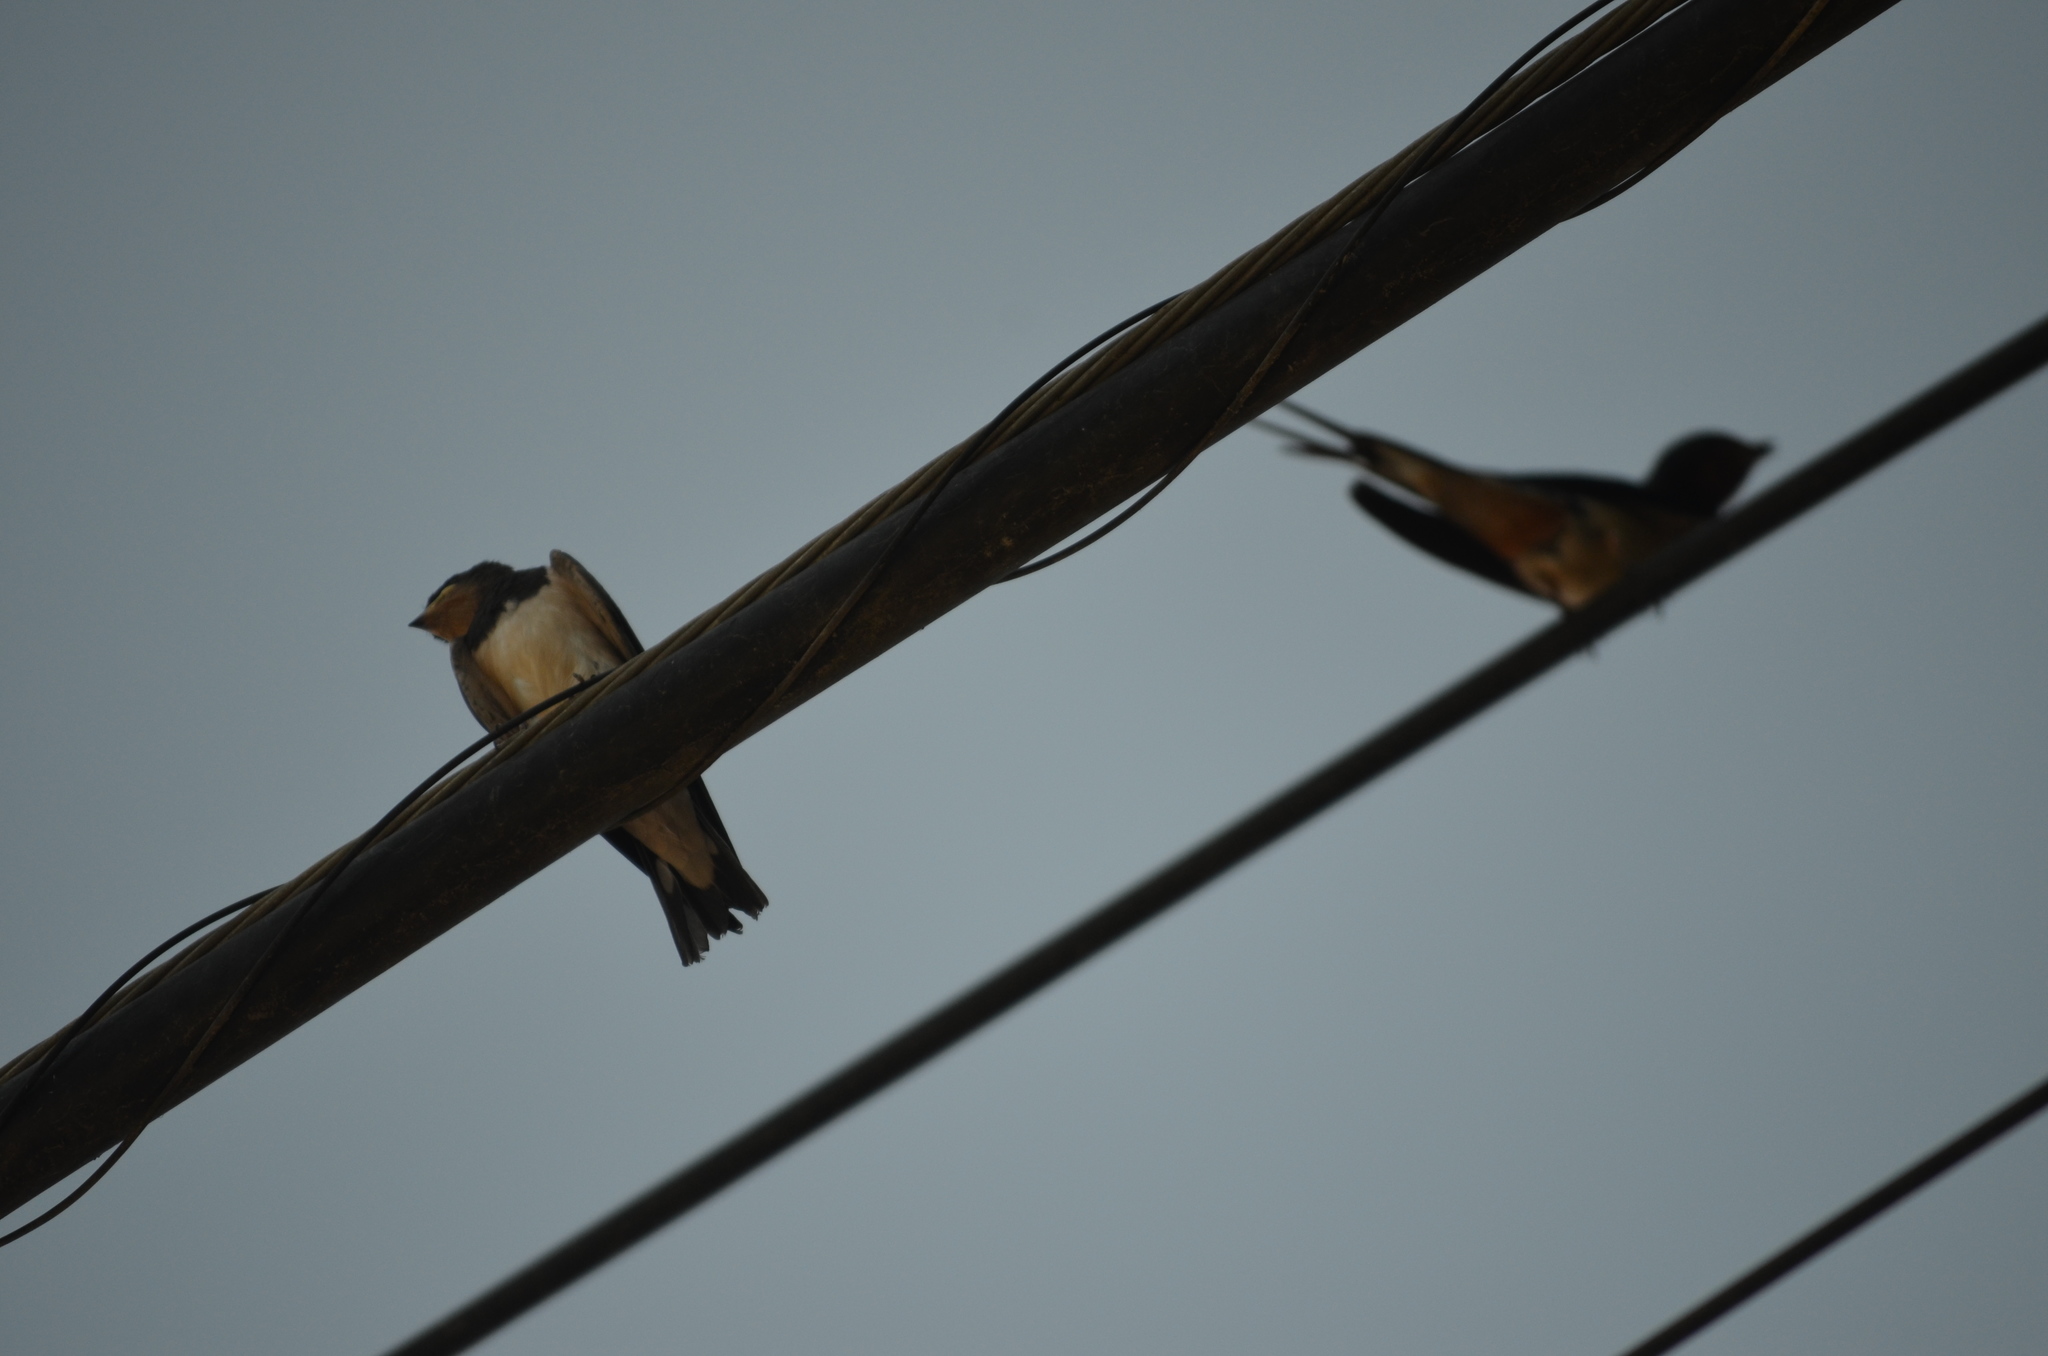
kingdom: Animalia
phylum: Chordata
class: Aves
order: Passeriformes
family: Hirundinidae
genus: Hirundo
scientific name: Hirundo rustica
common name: Barn swallow
